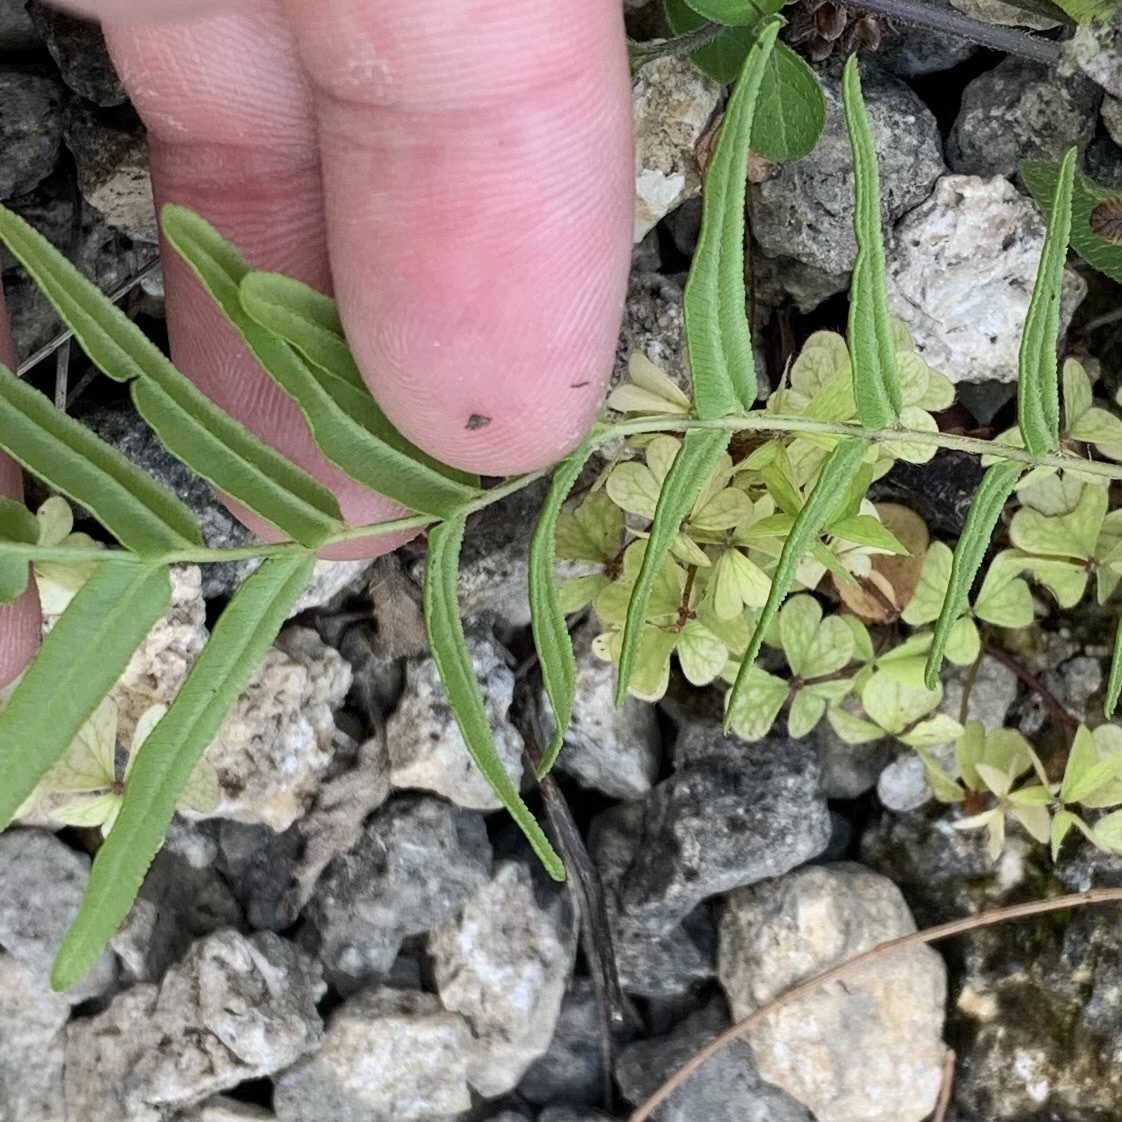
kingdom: Plantae
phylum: Tracheophyta
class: Polypodiopsida
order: Polypodiales
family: Pteridaceae
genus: Pteris
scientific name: Pteris vittata
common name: Ladder brake
